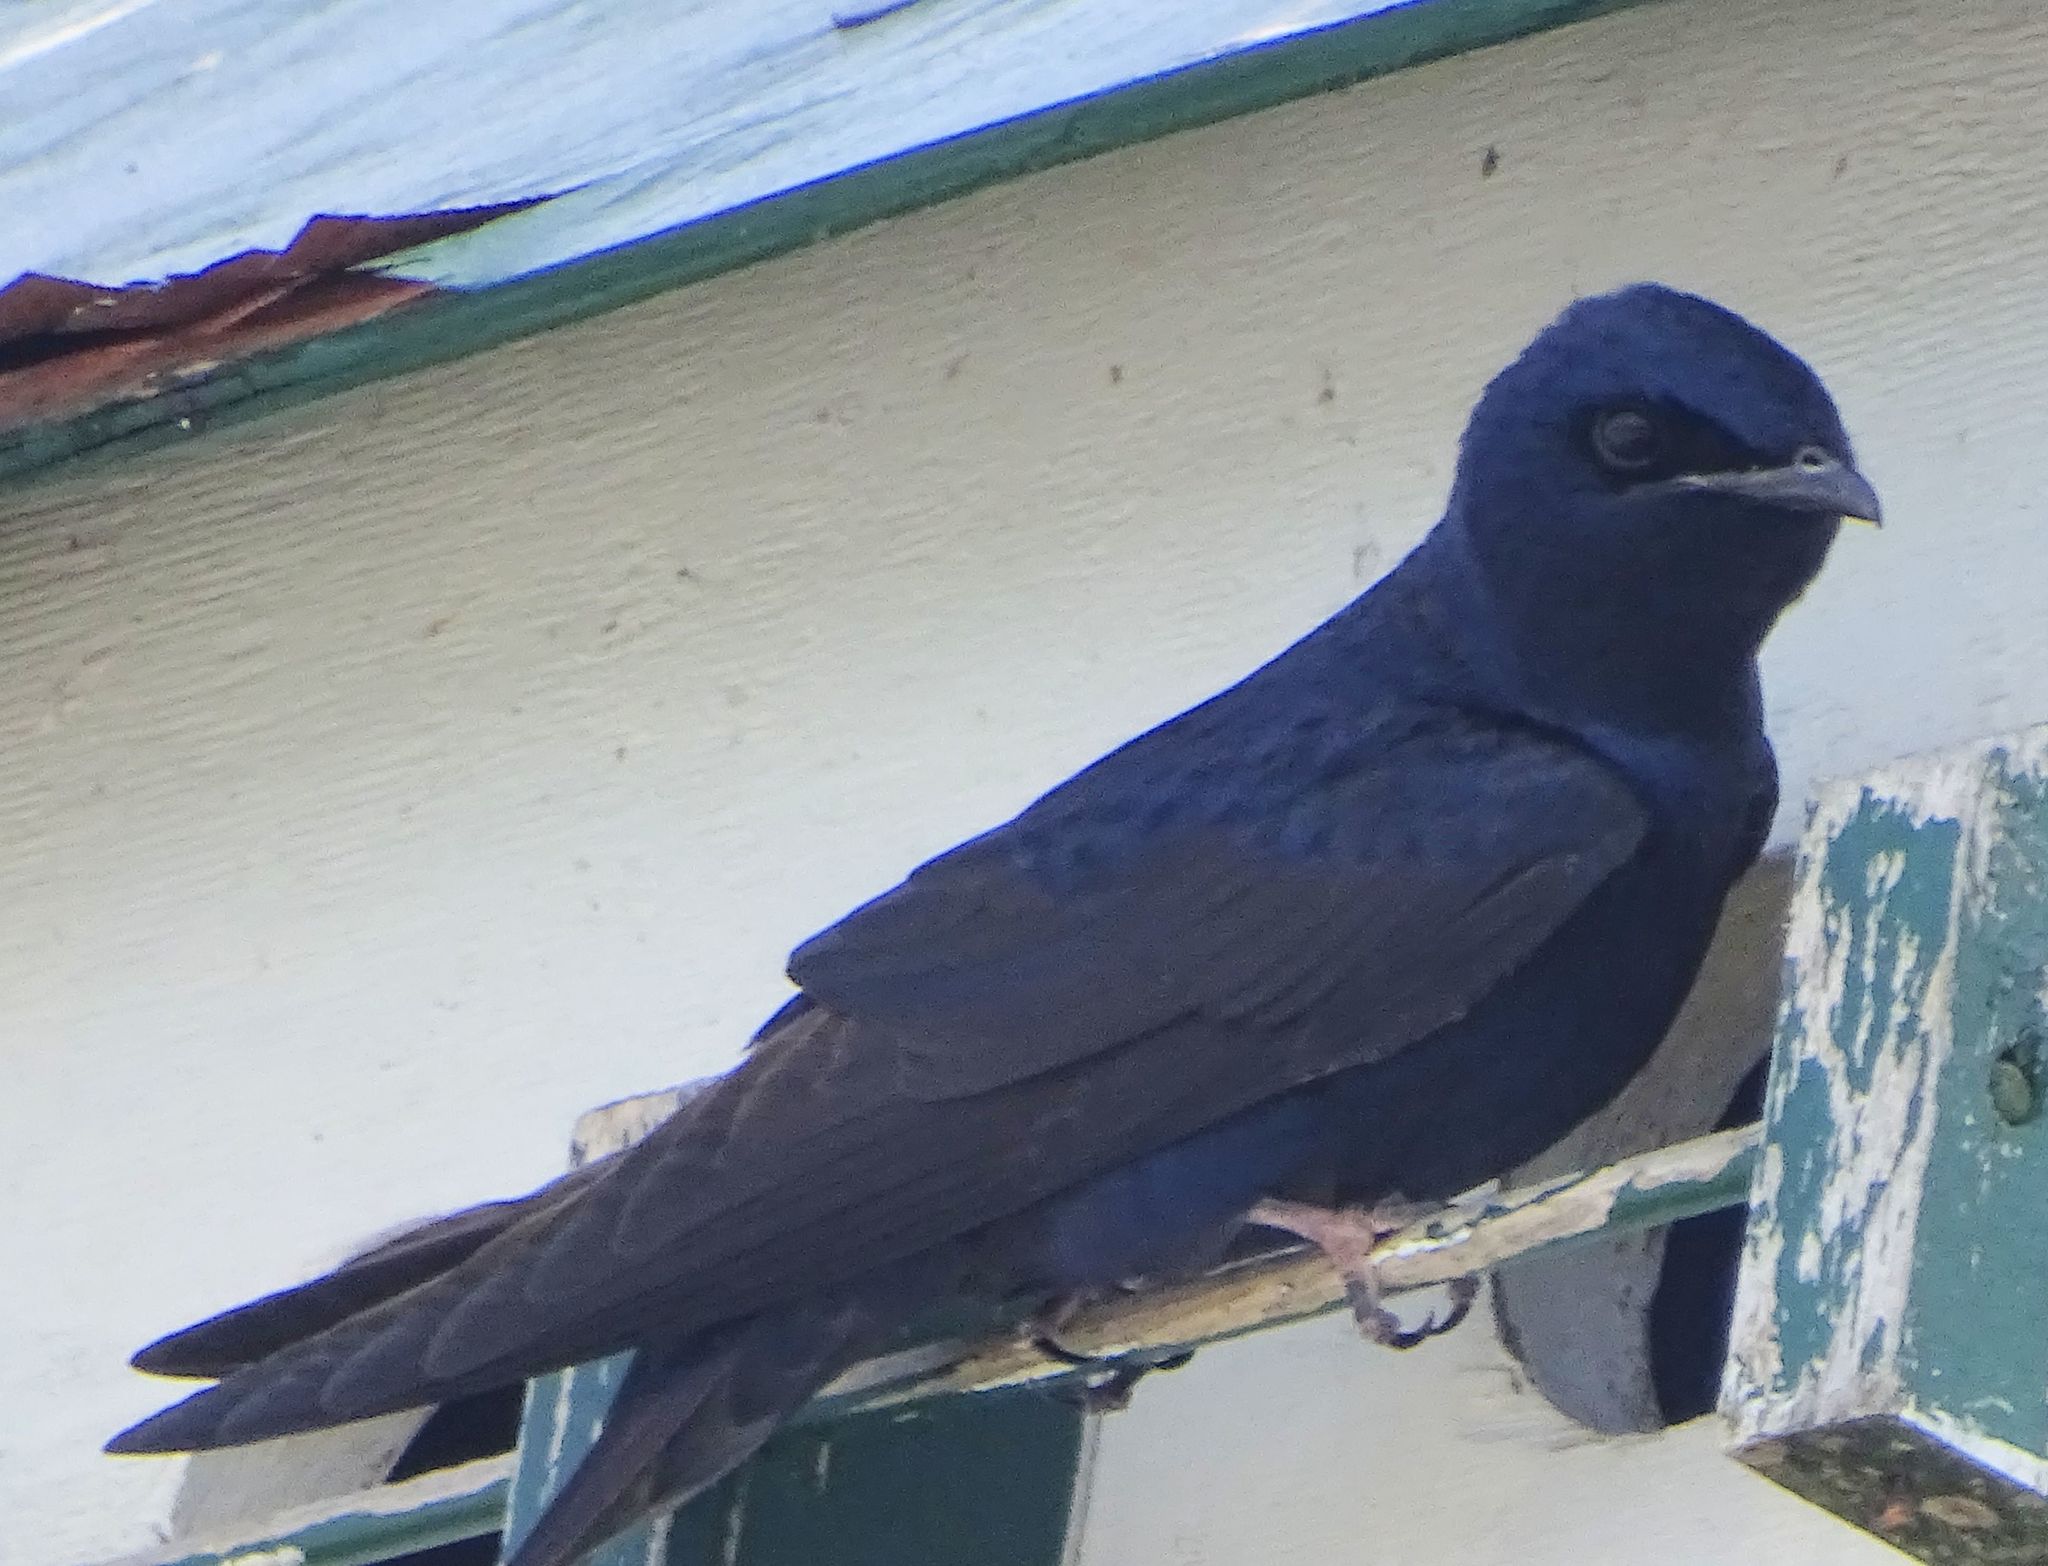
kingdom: Animalia
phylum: Chordata
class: Aves
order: Passeriformes
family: Hirundinidae
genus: Progne
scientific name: Progne subis
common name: Purple martin
